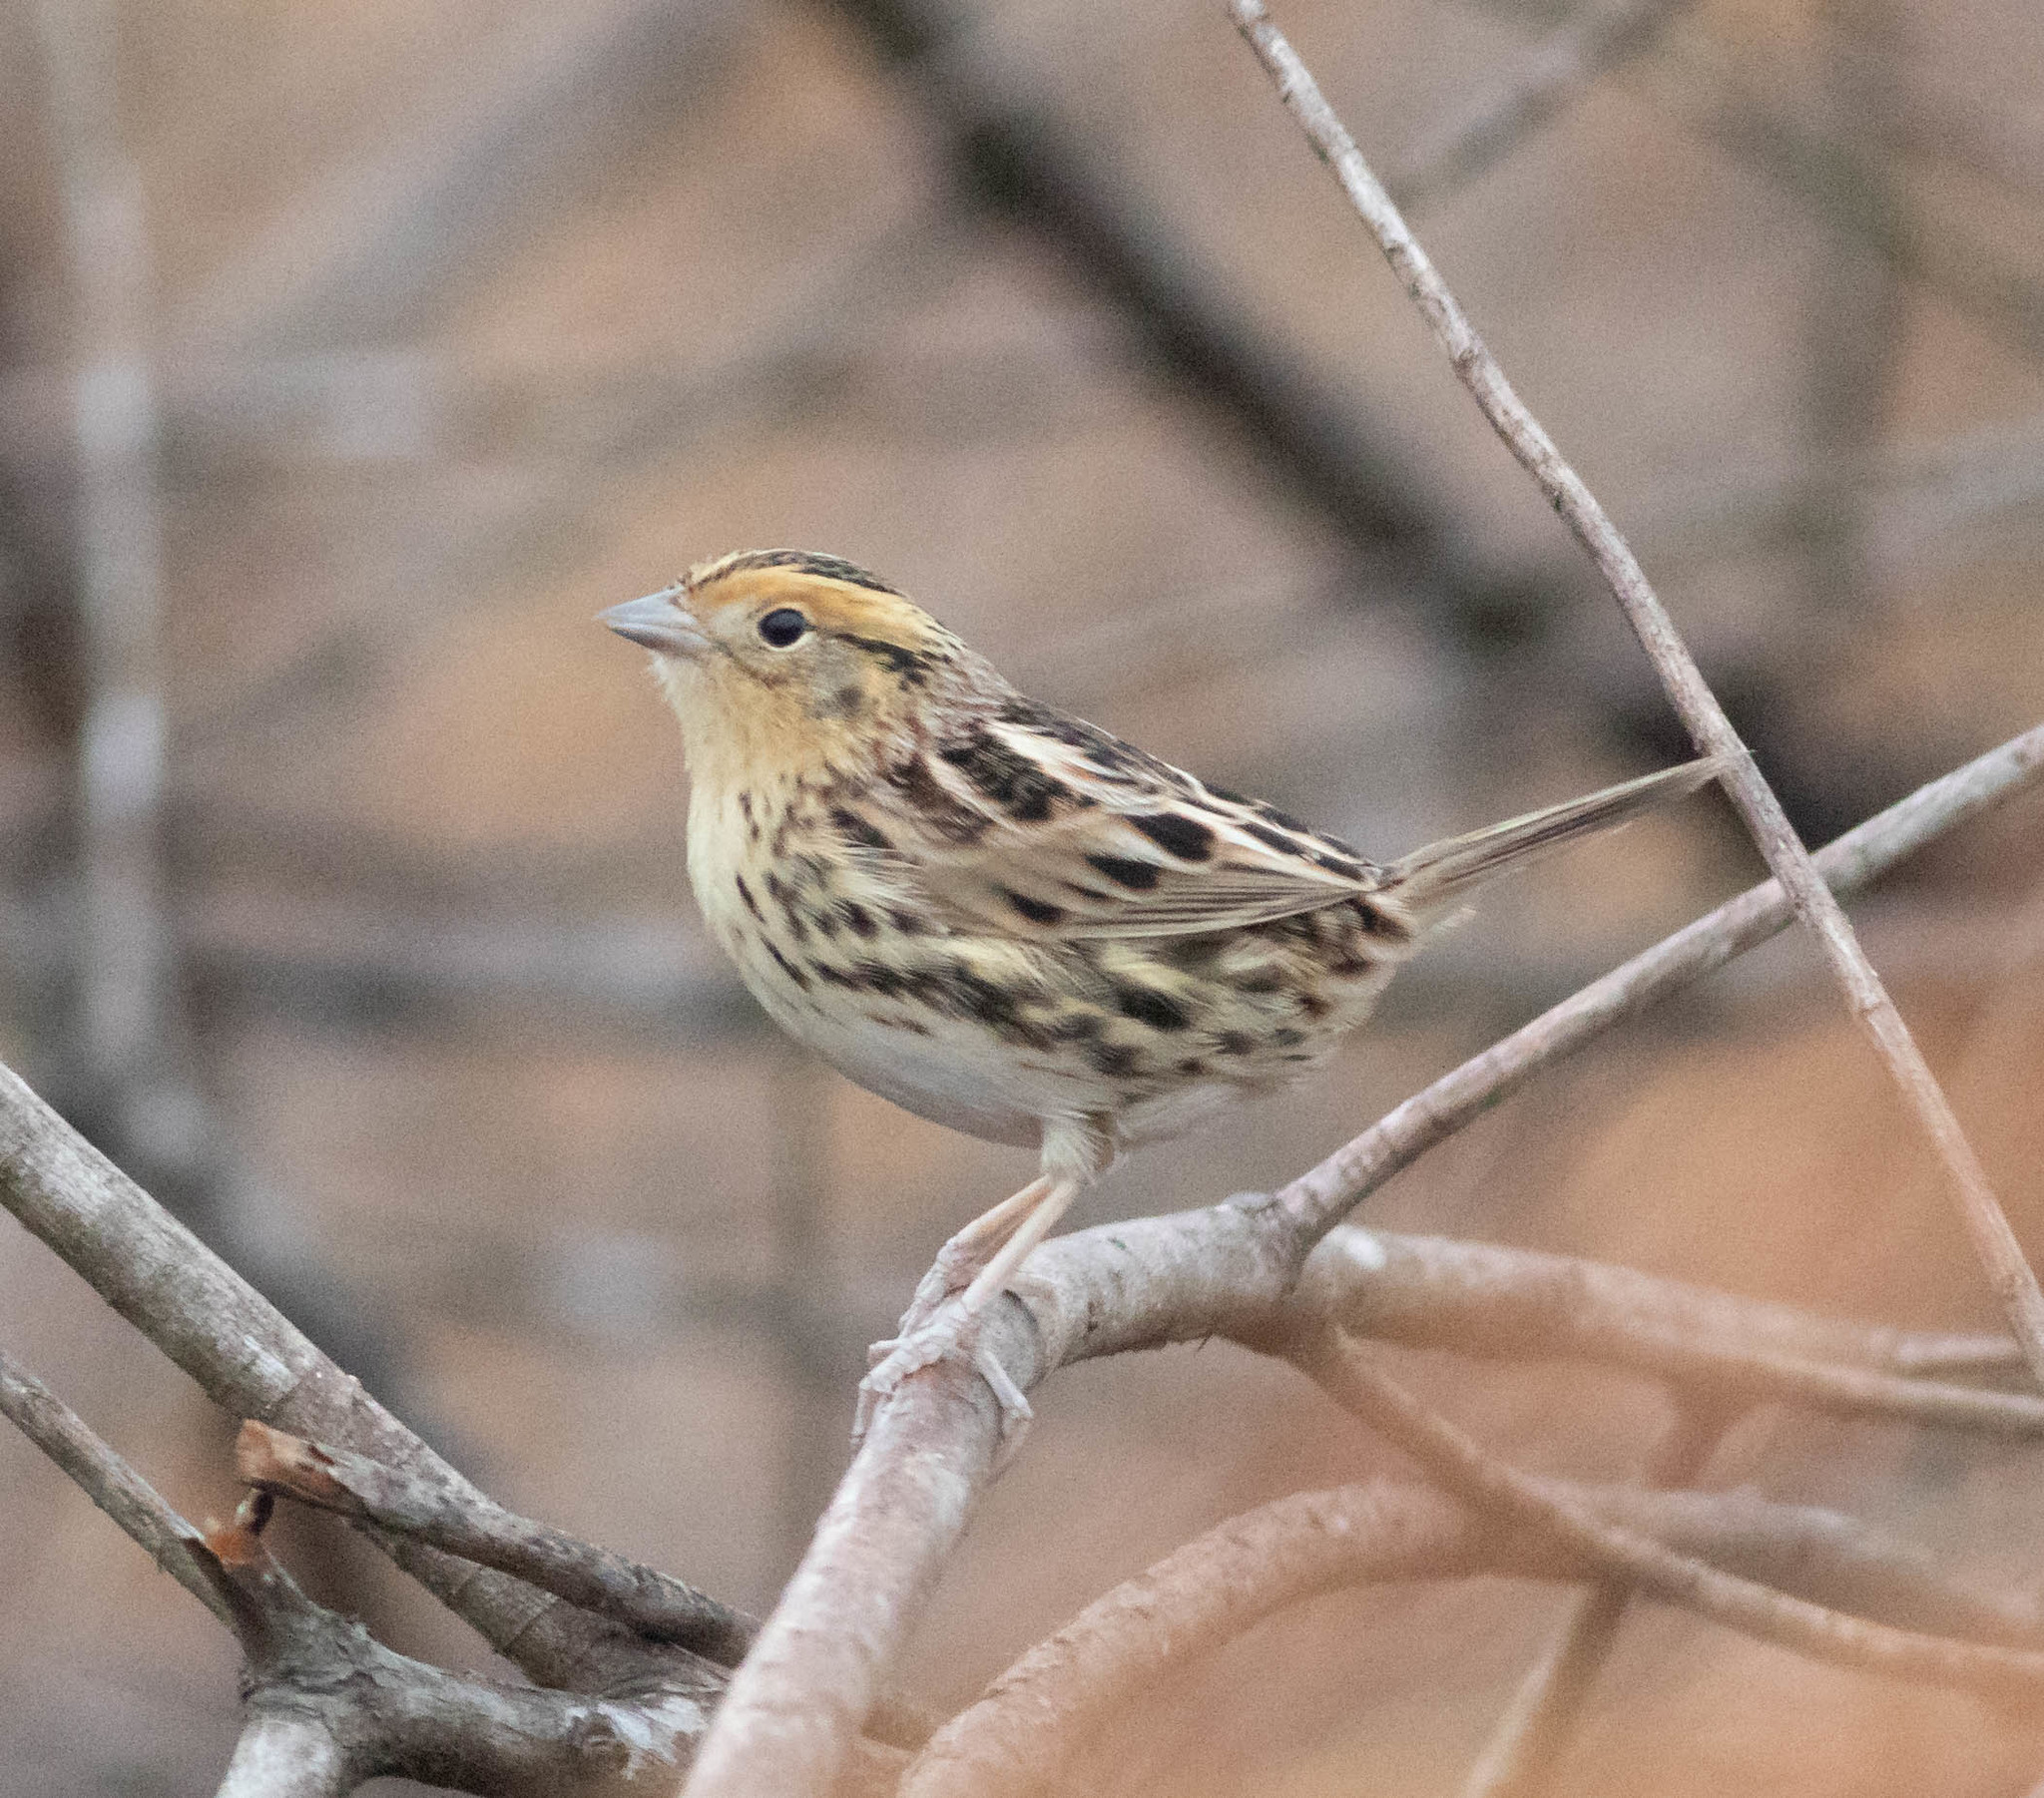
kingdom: Animalia
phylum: Chordata
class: Aves
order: Passeriformes
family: Passerellidae
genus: Ammospiza
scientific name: Ammospiza leconteii
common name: Le conte's sparrow
